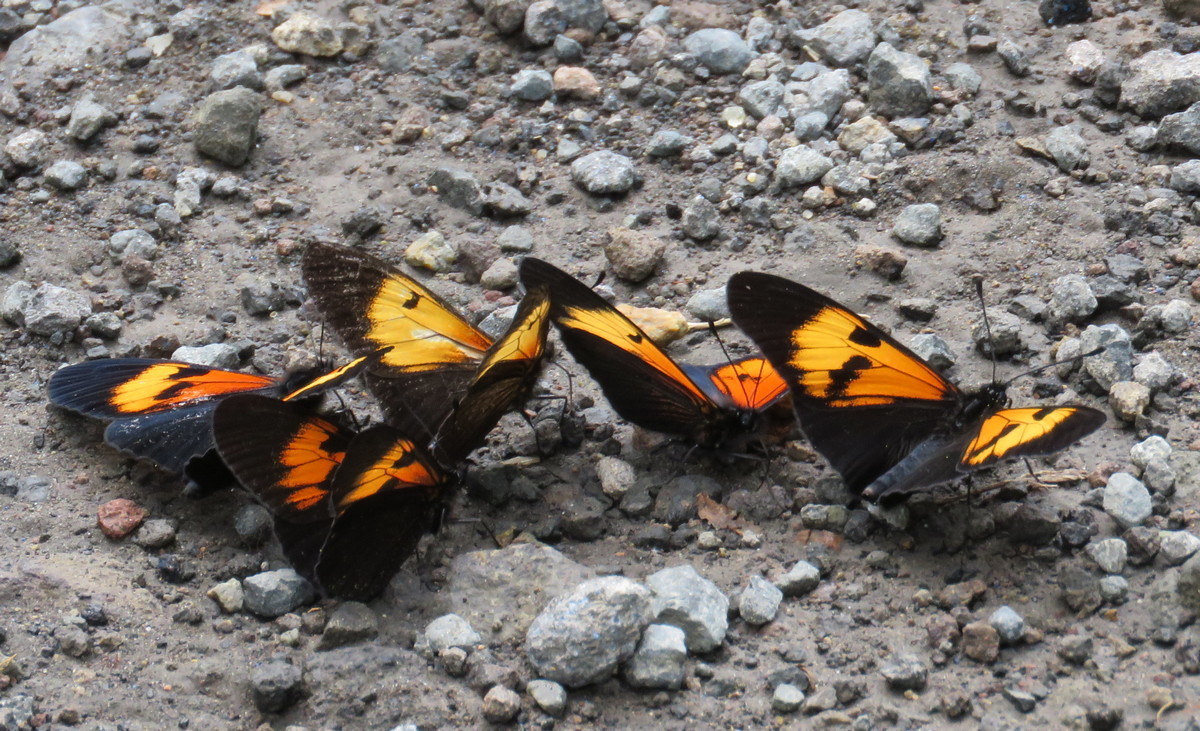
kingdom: Animalia
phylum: Arthropoda
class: Insecta
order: Lepidoptera
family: Nymphalidae
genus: Actinote
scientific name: Actinote stratonice
